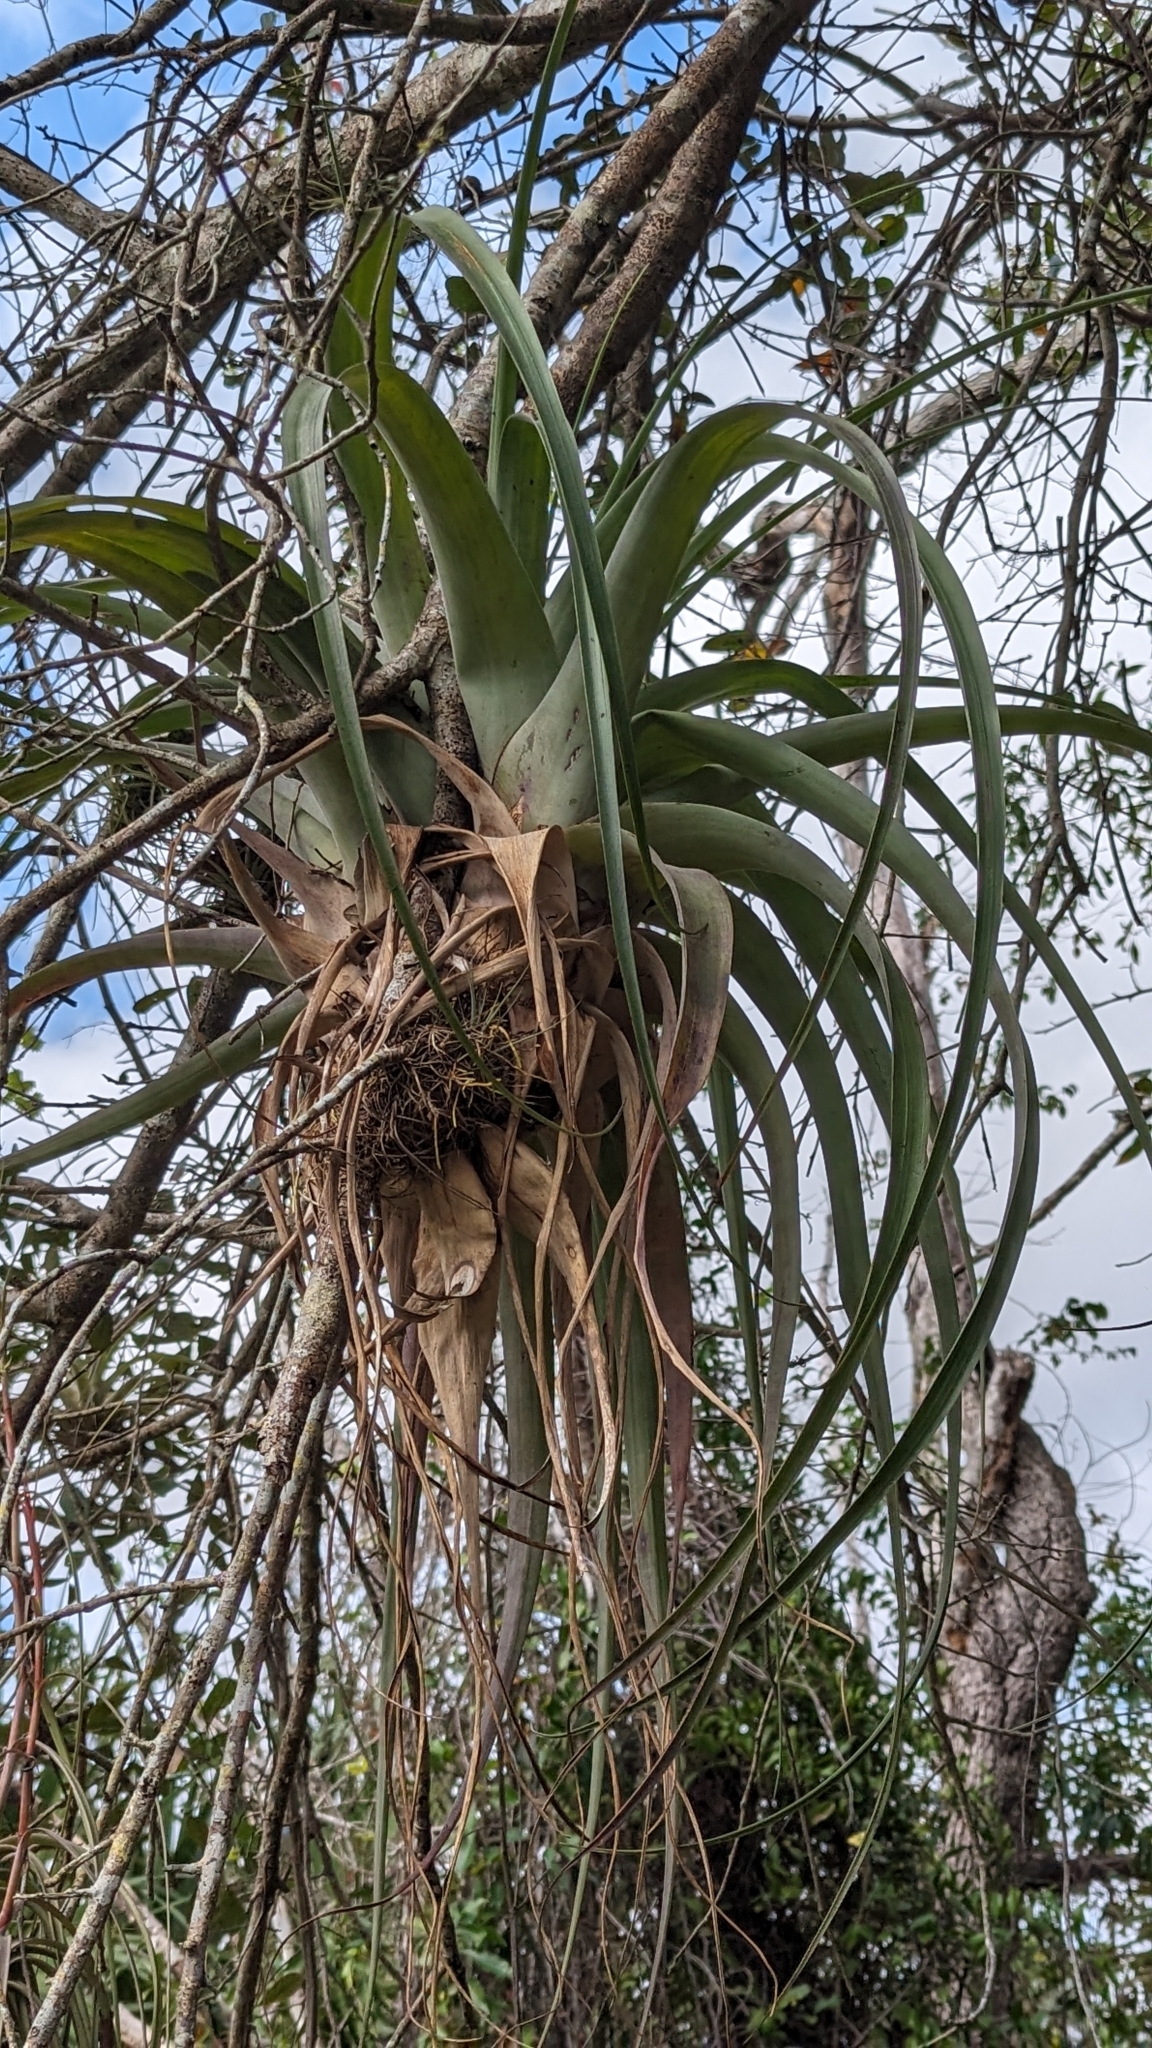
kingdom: Plantae
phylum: Tracheophyta
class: Liliopsida
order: Poales
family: Bromeliaceae
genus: Tillandsia
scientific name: Tillandsia utriculata
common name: Wild pine
